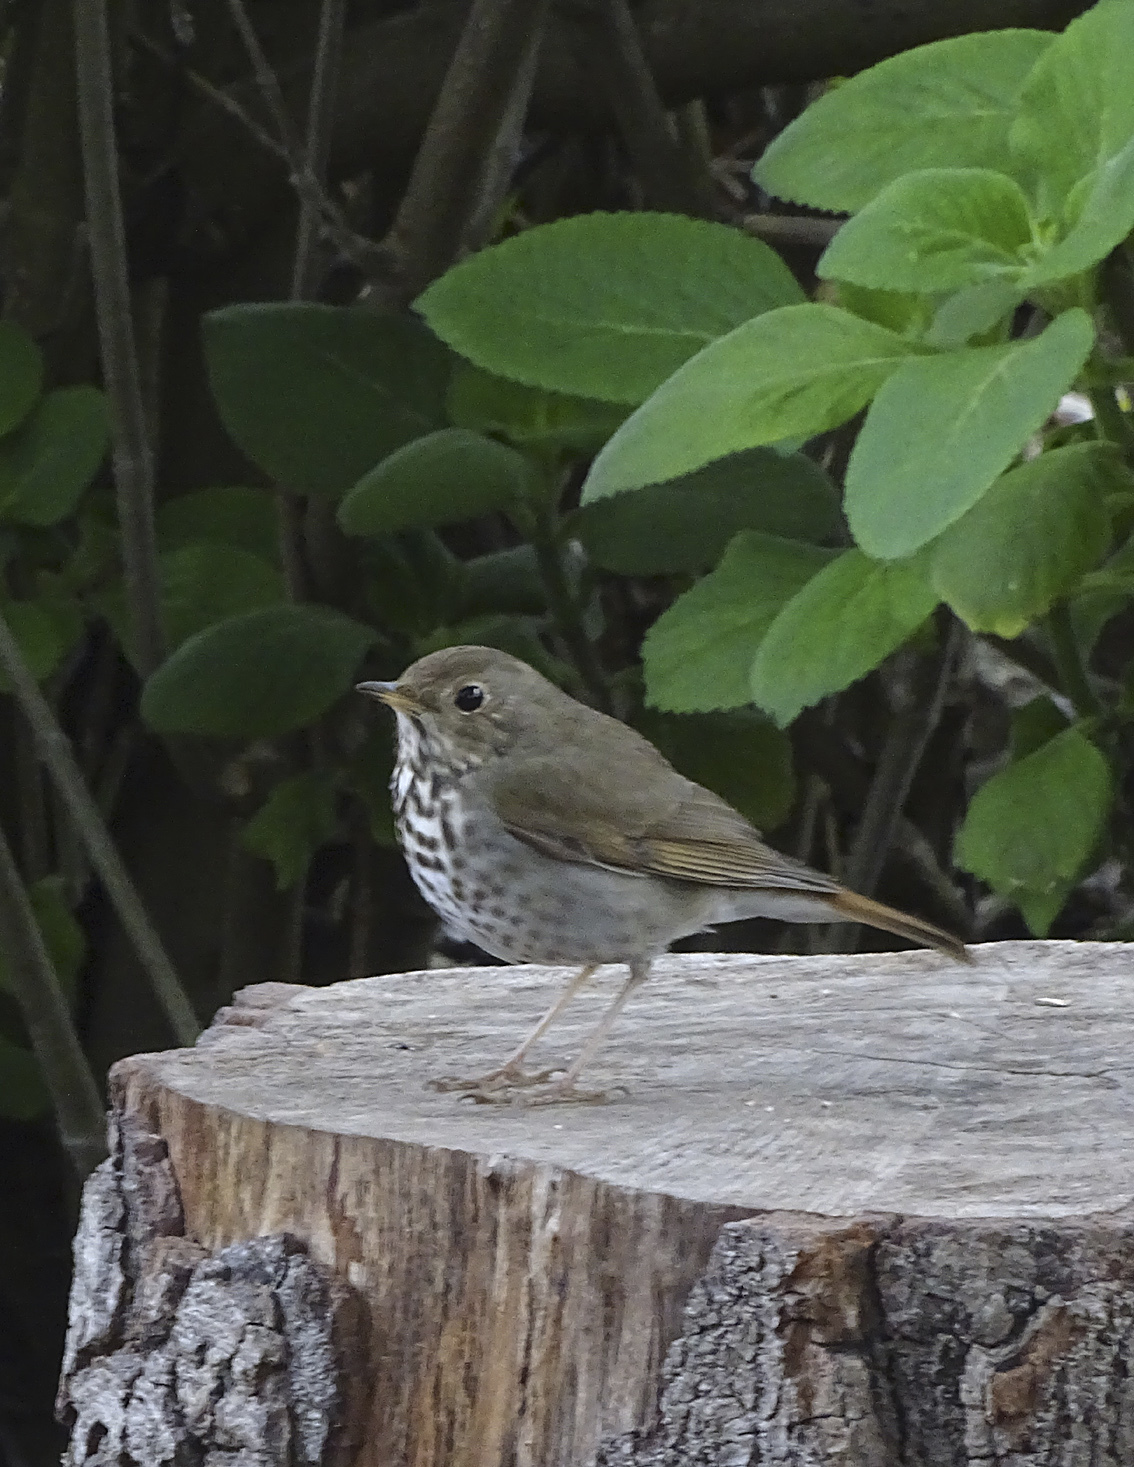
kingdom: Animalia
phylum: Chordata
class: Aves
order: Passeriformes
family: Turdidae
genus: Catharus
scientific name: Catharus guttatus
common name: Hermit thrush
